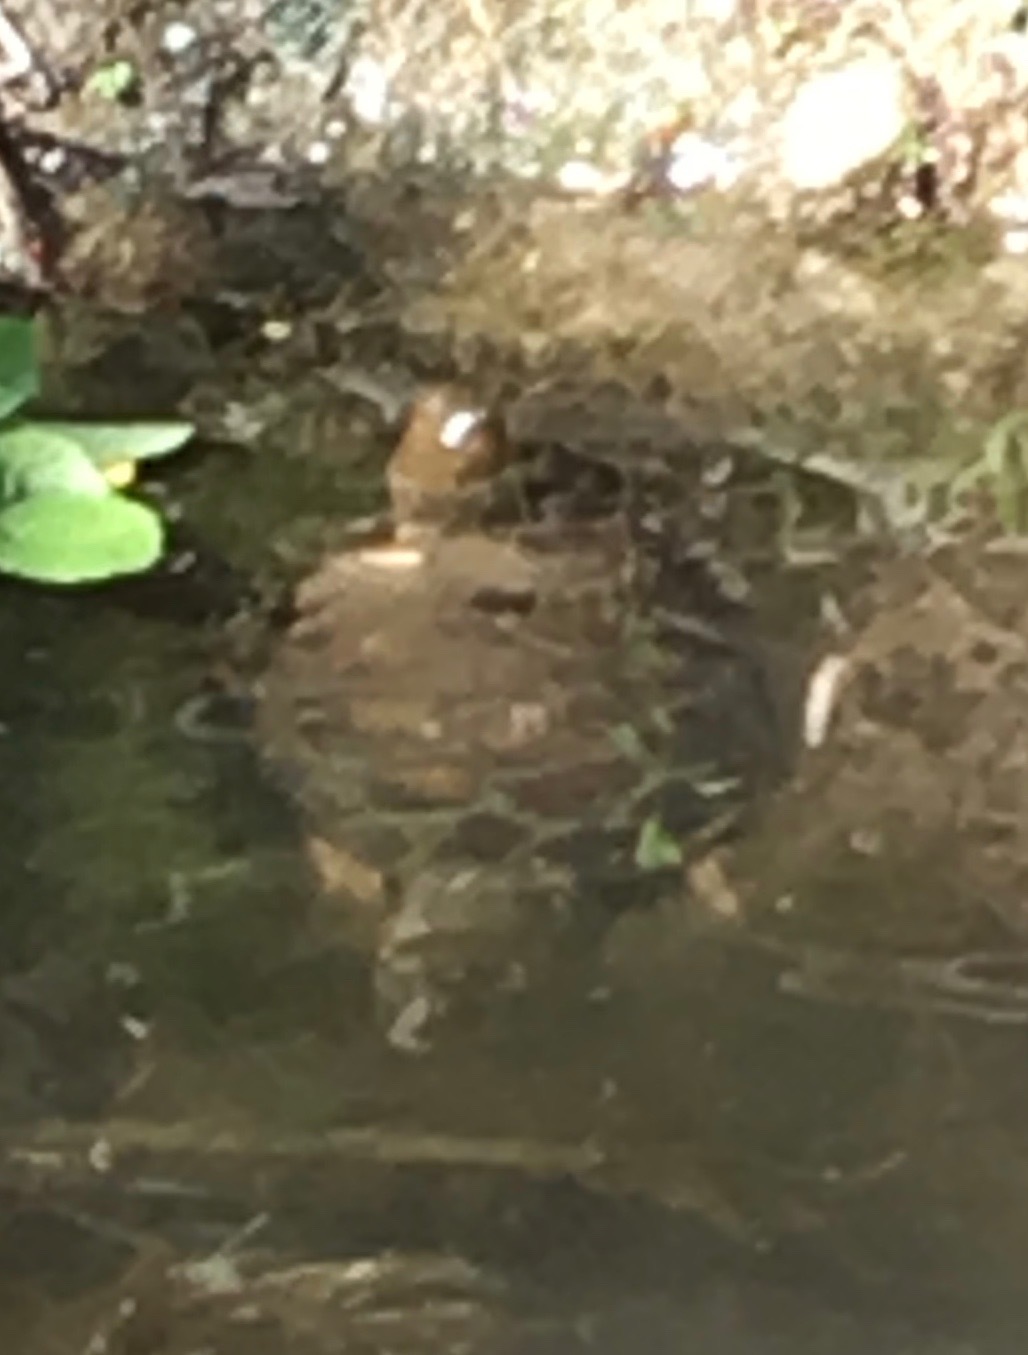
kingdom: Animalia
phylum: Chordata
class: Testudines
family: Emydidae
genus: Actinemys
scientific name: Actinemys marmorata
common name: Western pond turtle
